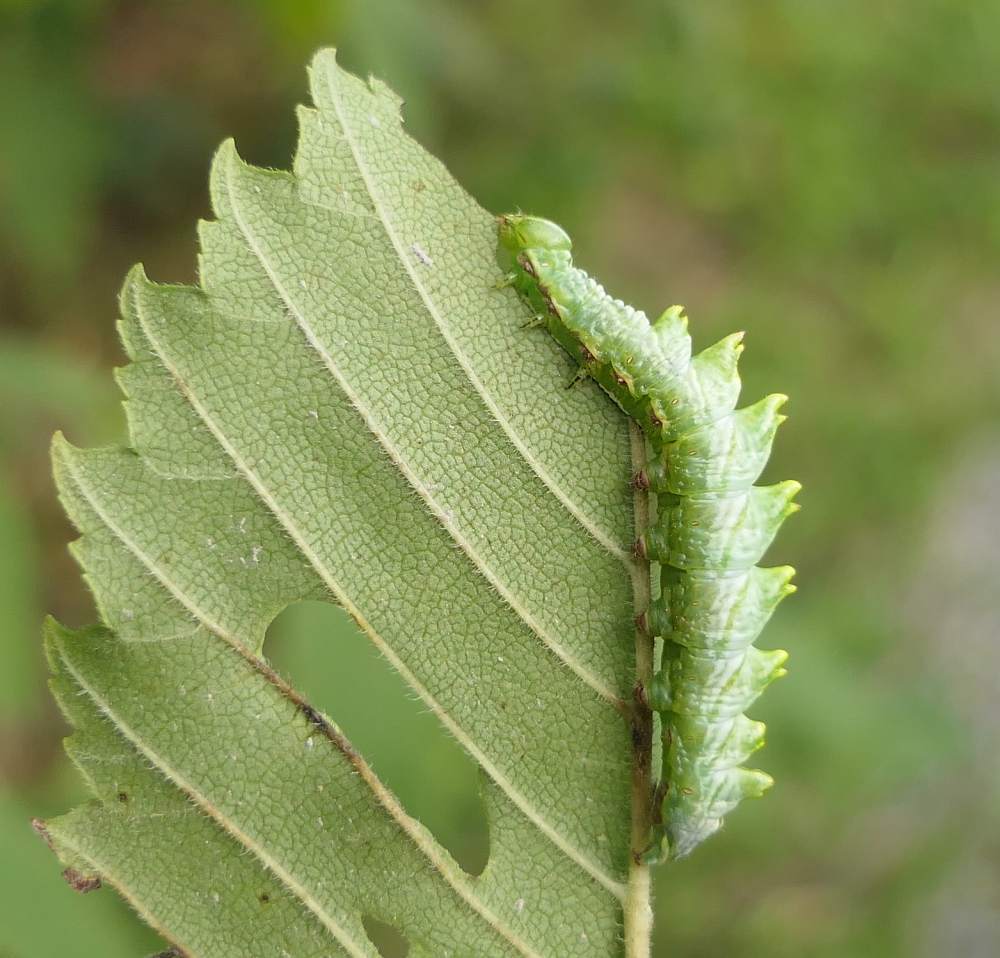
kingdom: Animalia
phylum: Arthropoda
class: Insecta
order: Lepidoptera
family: Notodontidae
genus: Nerice
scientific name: Nerice bidentata
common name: Double-toothed prominent
